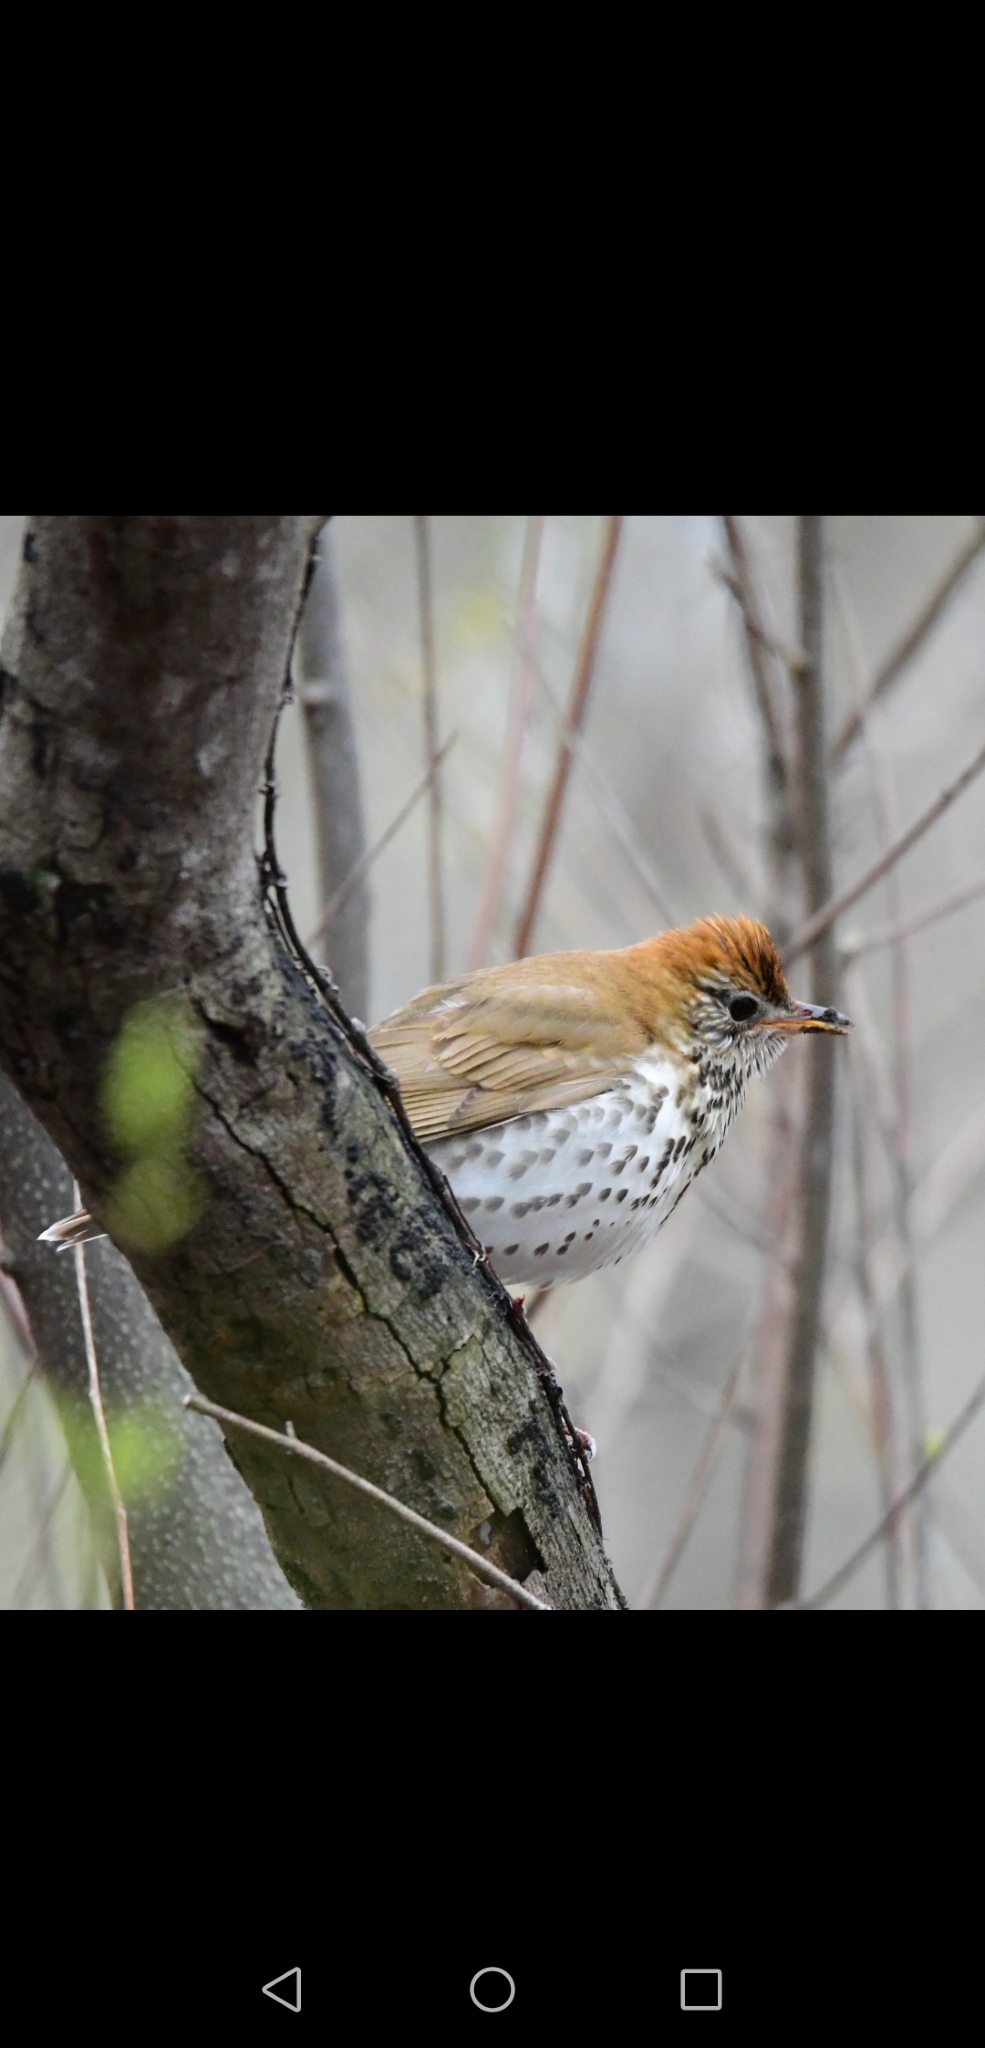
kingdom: Animalia
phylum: Chordata
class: Aves
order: Passeriformes
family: Turdidae
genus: Hylocichla
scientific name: Hylocichla mustelina
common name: Wood thrush
